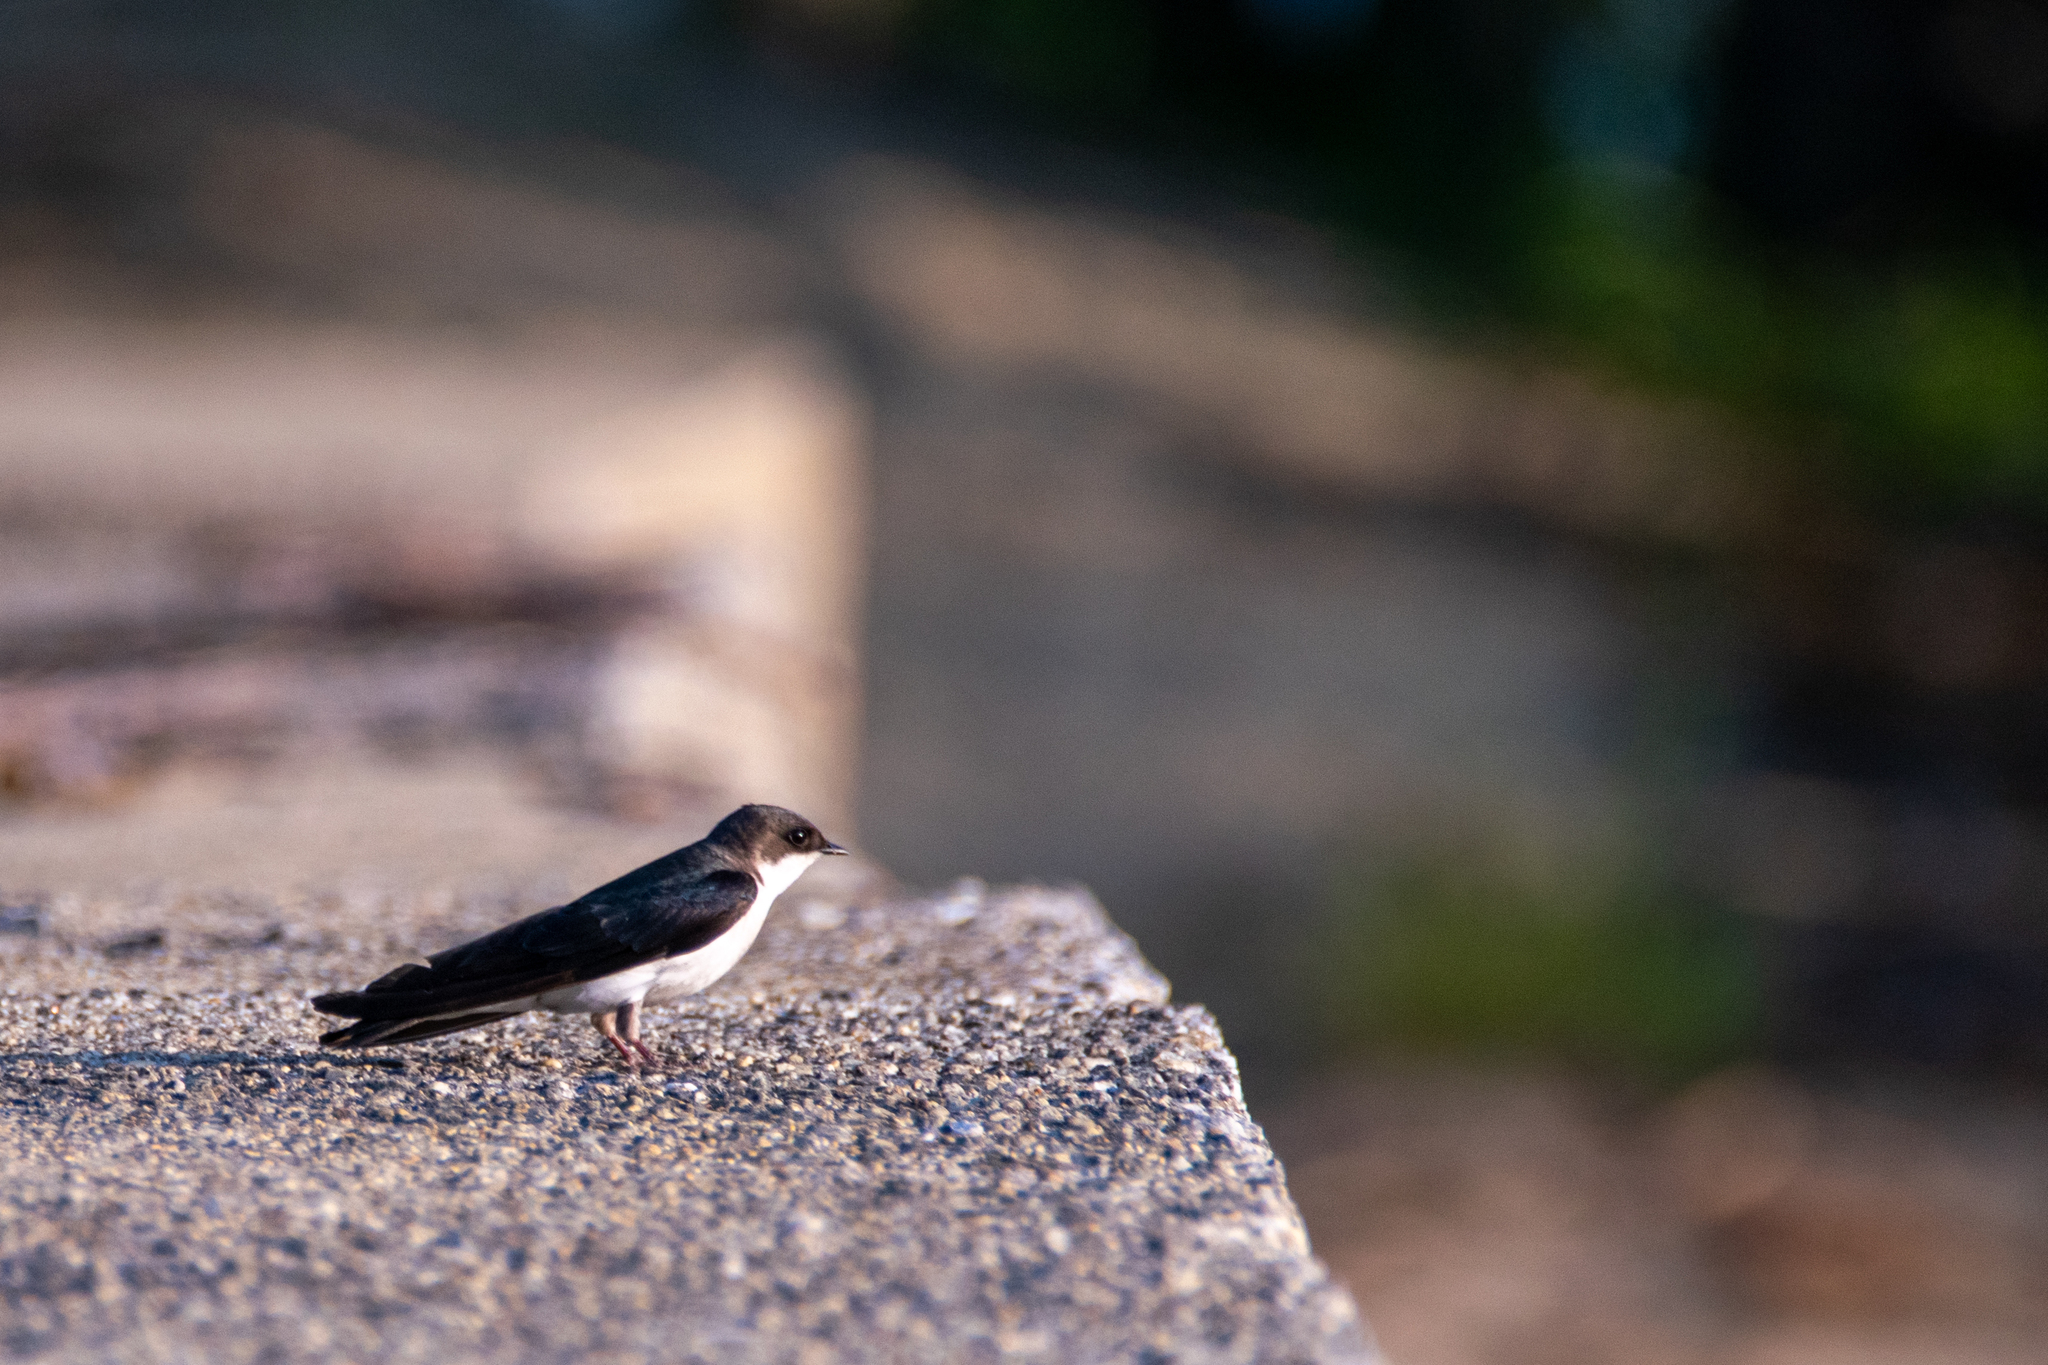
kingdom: Animalia
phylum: Chordata
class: Aves
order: Passeriformes
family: Hirundinidae
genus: Tachycineta
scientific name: Tachycineta bicolor
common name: Tree swallow
